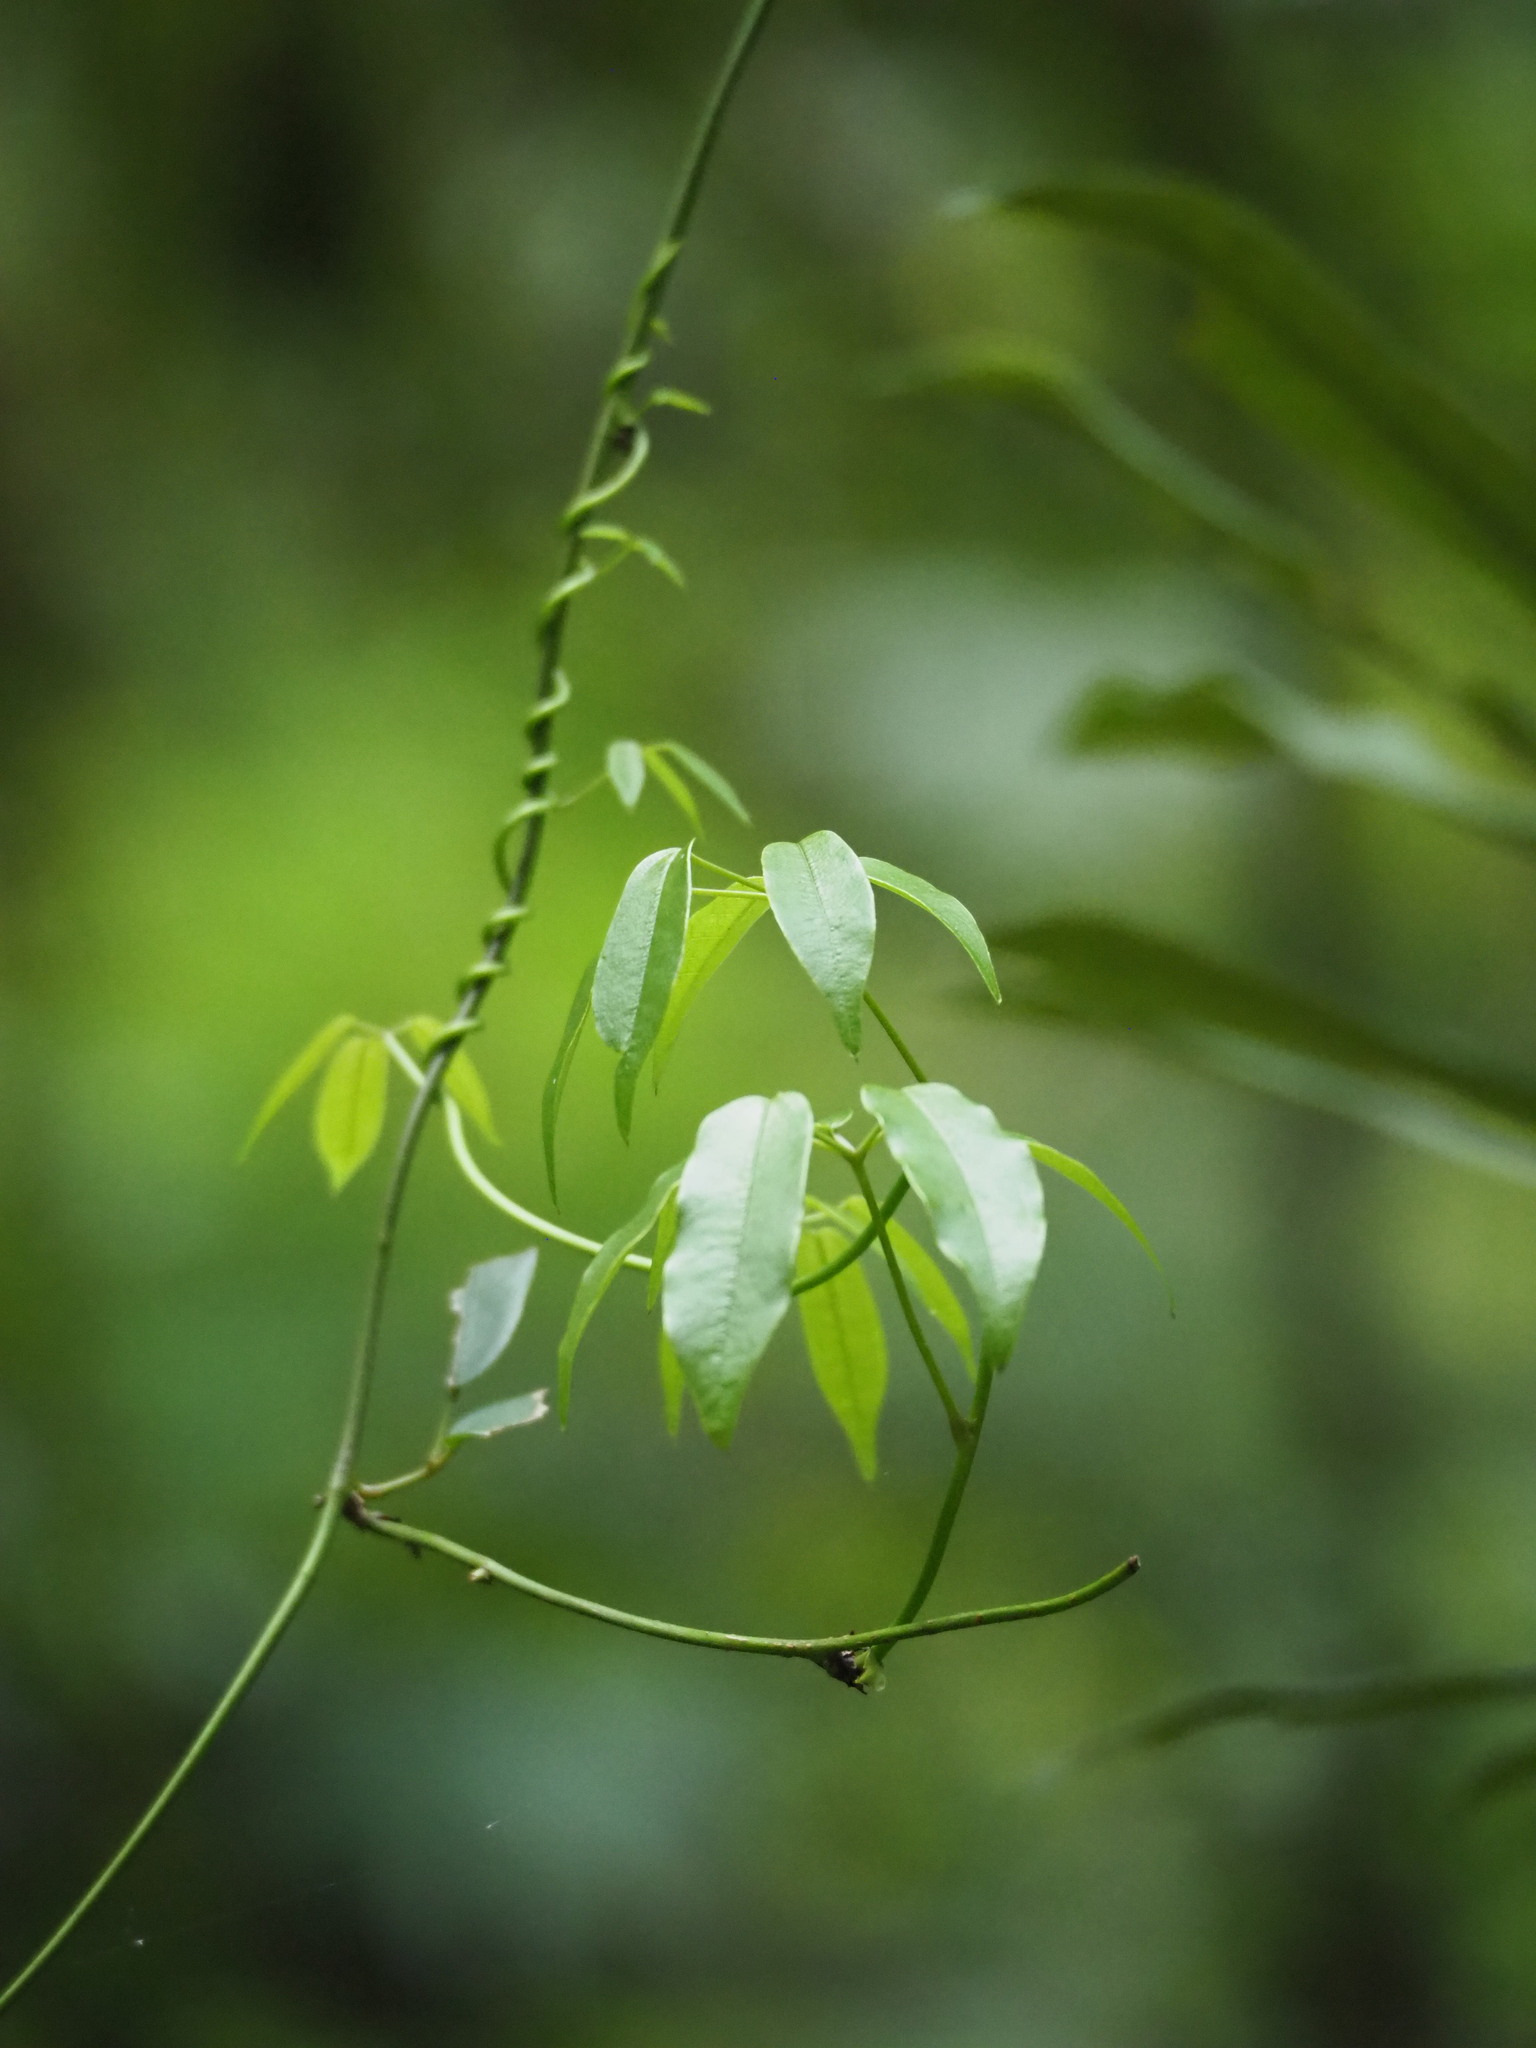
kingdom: Plantae
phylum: Tracheophyta
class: Magnoliopsida
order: Ranunculales
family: Lardizabalaceae
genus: Stauntonia
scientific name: Stauntonia obovatifoliola
